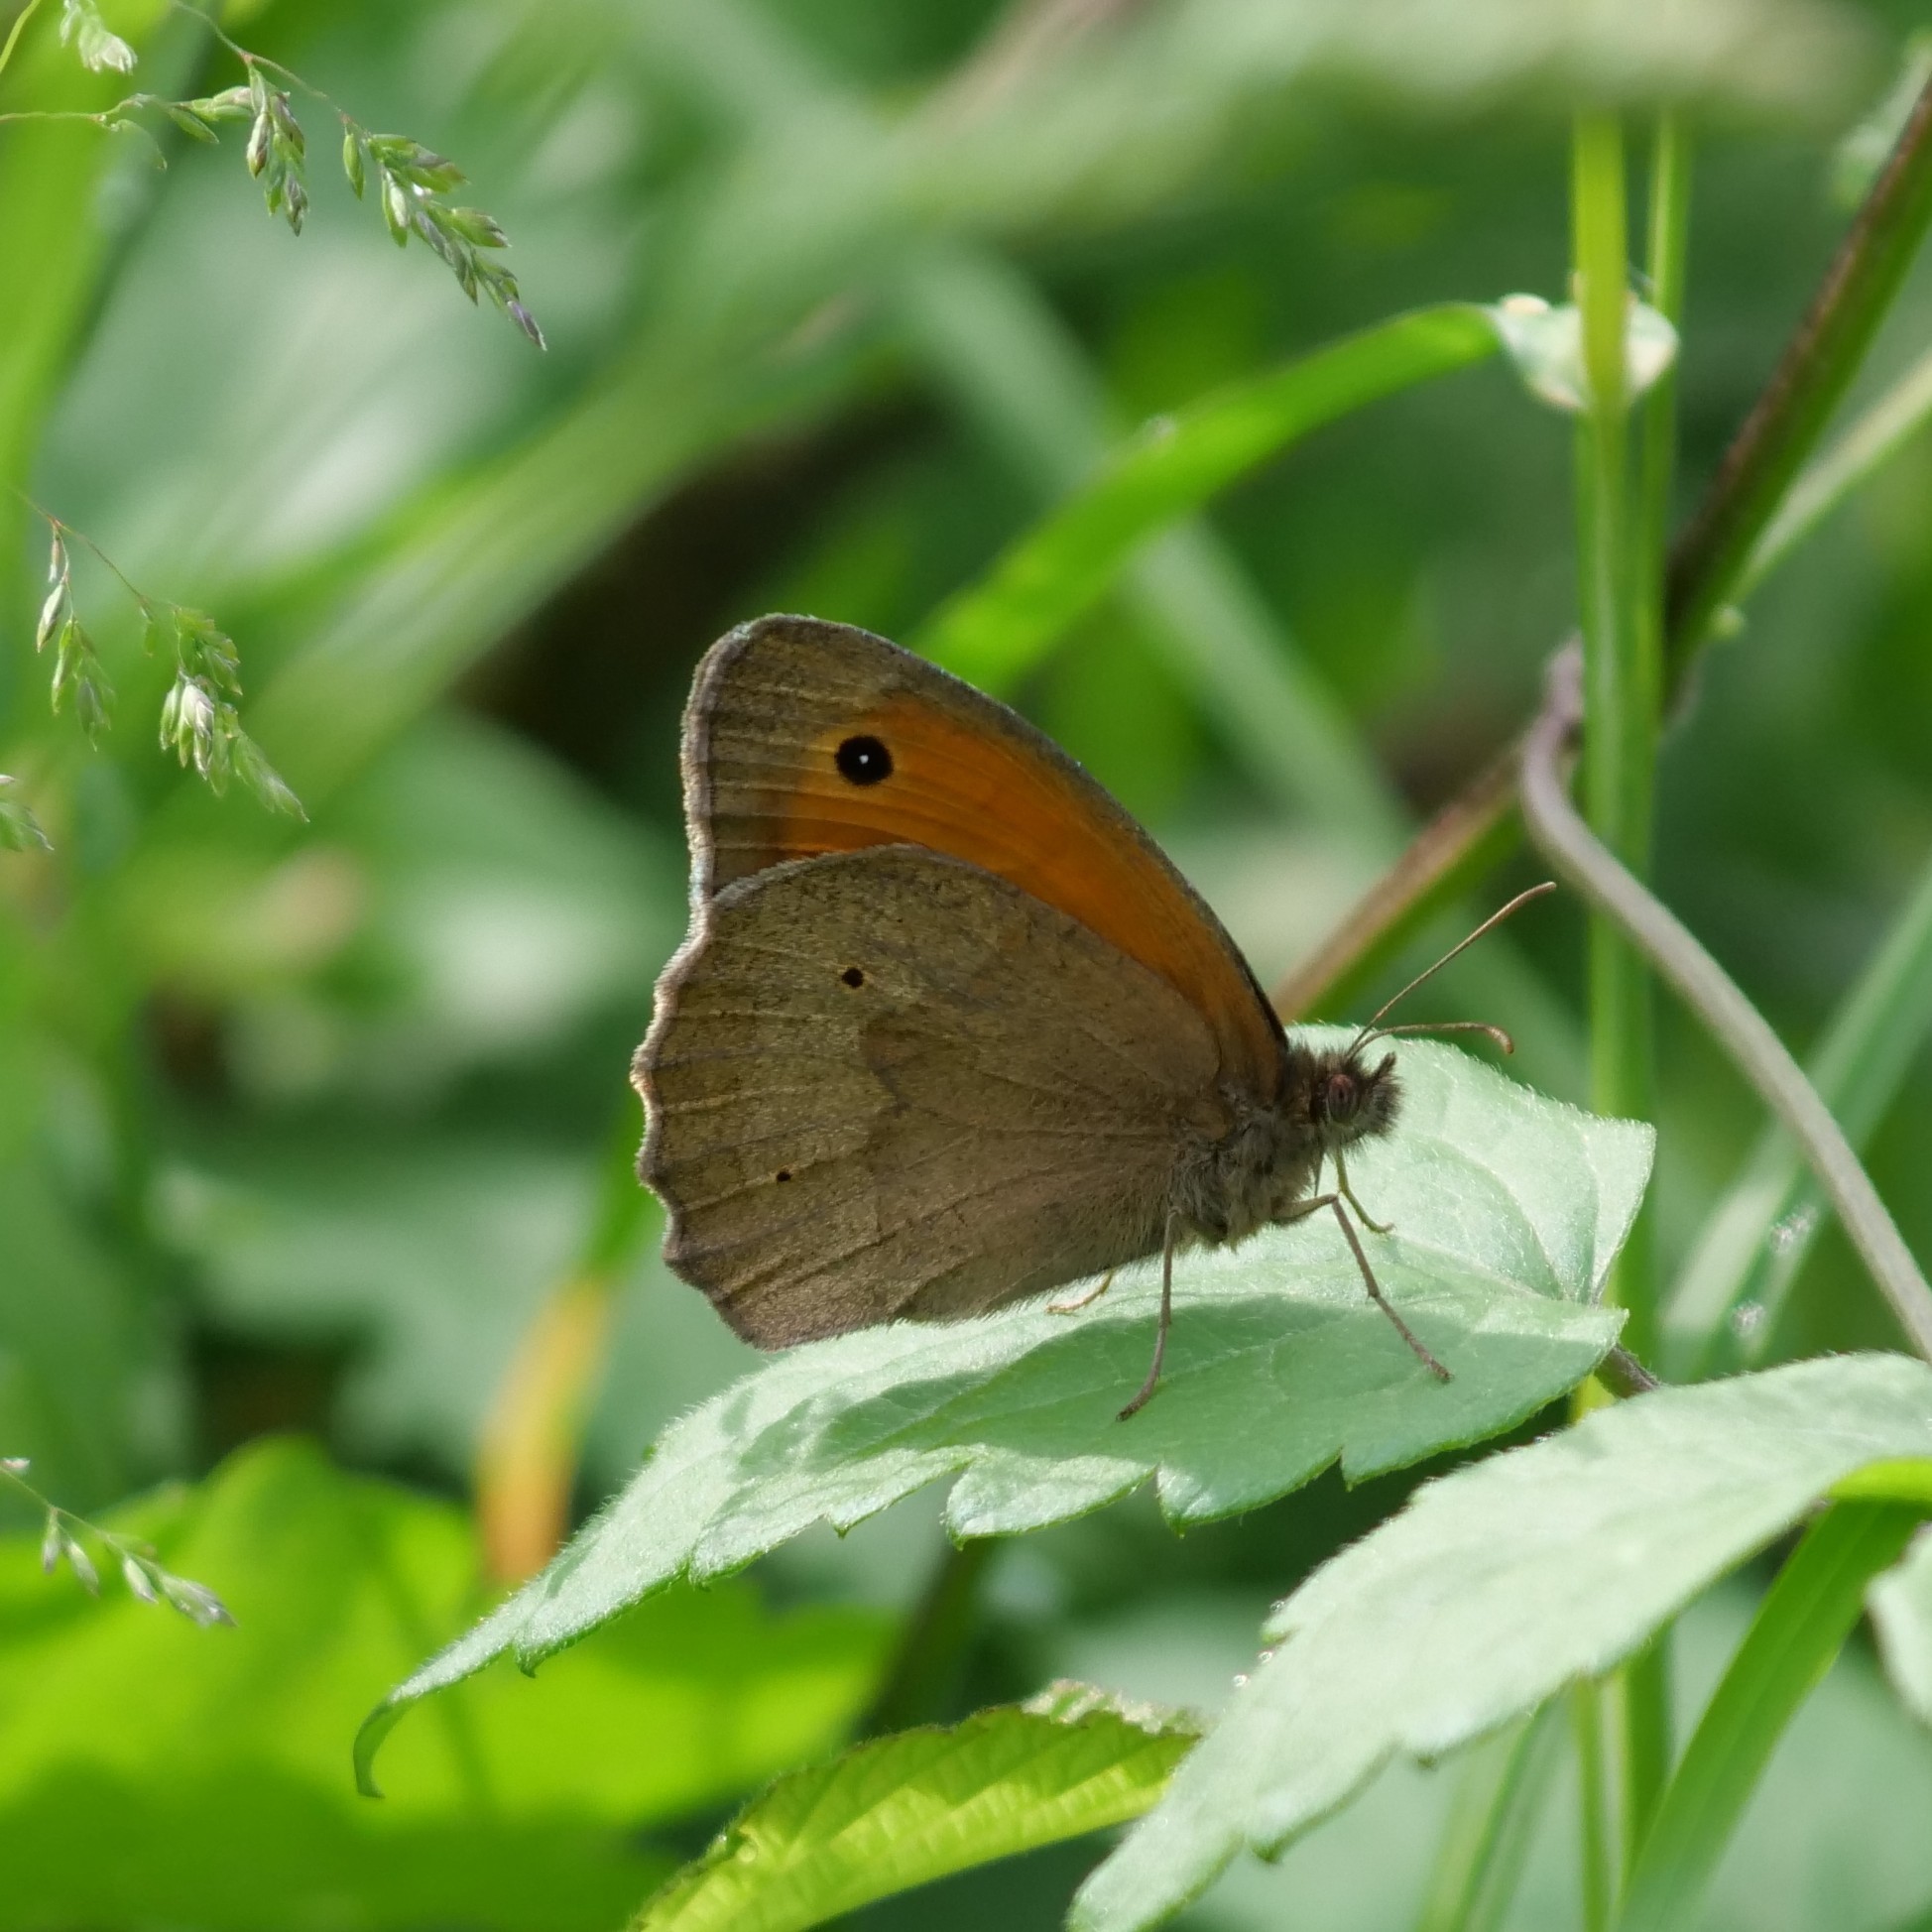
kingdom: Animalia
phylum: Arthropoda
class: Insecta
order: Lepidoptera
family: Nymphalidae
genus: Maniola
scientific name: Maniola jurtina
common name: Meadow brown
